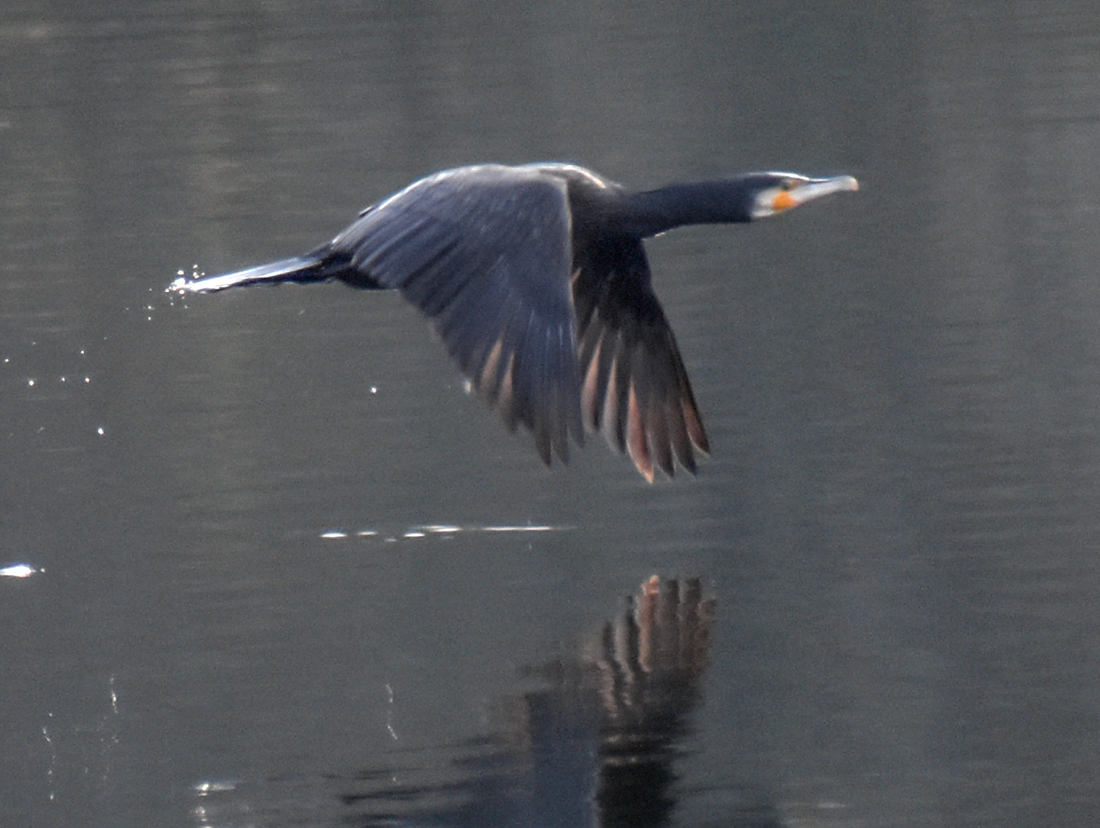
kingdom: Animalia
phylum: Chordata
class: Aves
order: Suliformes
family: Phalacrocoracidae
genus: Phalacrocorax
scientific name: Phalacrocorax carbo
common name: Great cormorant
